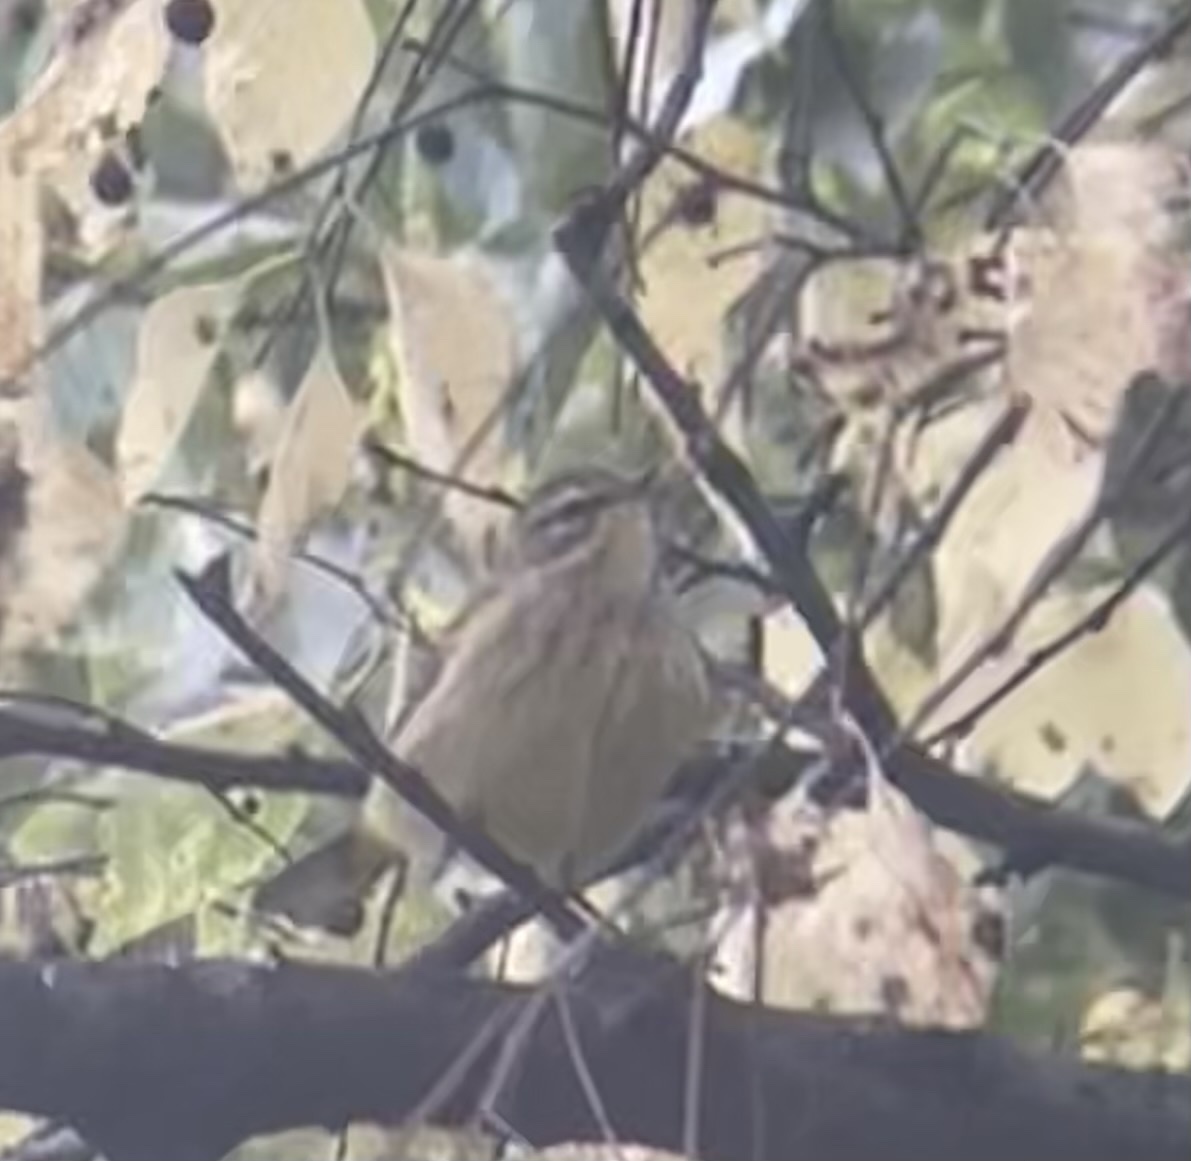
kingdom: Animalia
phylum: Chordata
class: Aves
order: Passeriformes
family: Parulidae
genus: Setophaga
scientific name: Setophaga palmarum
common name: Palm warbler
